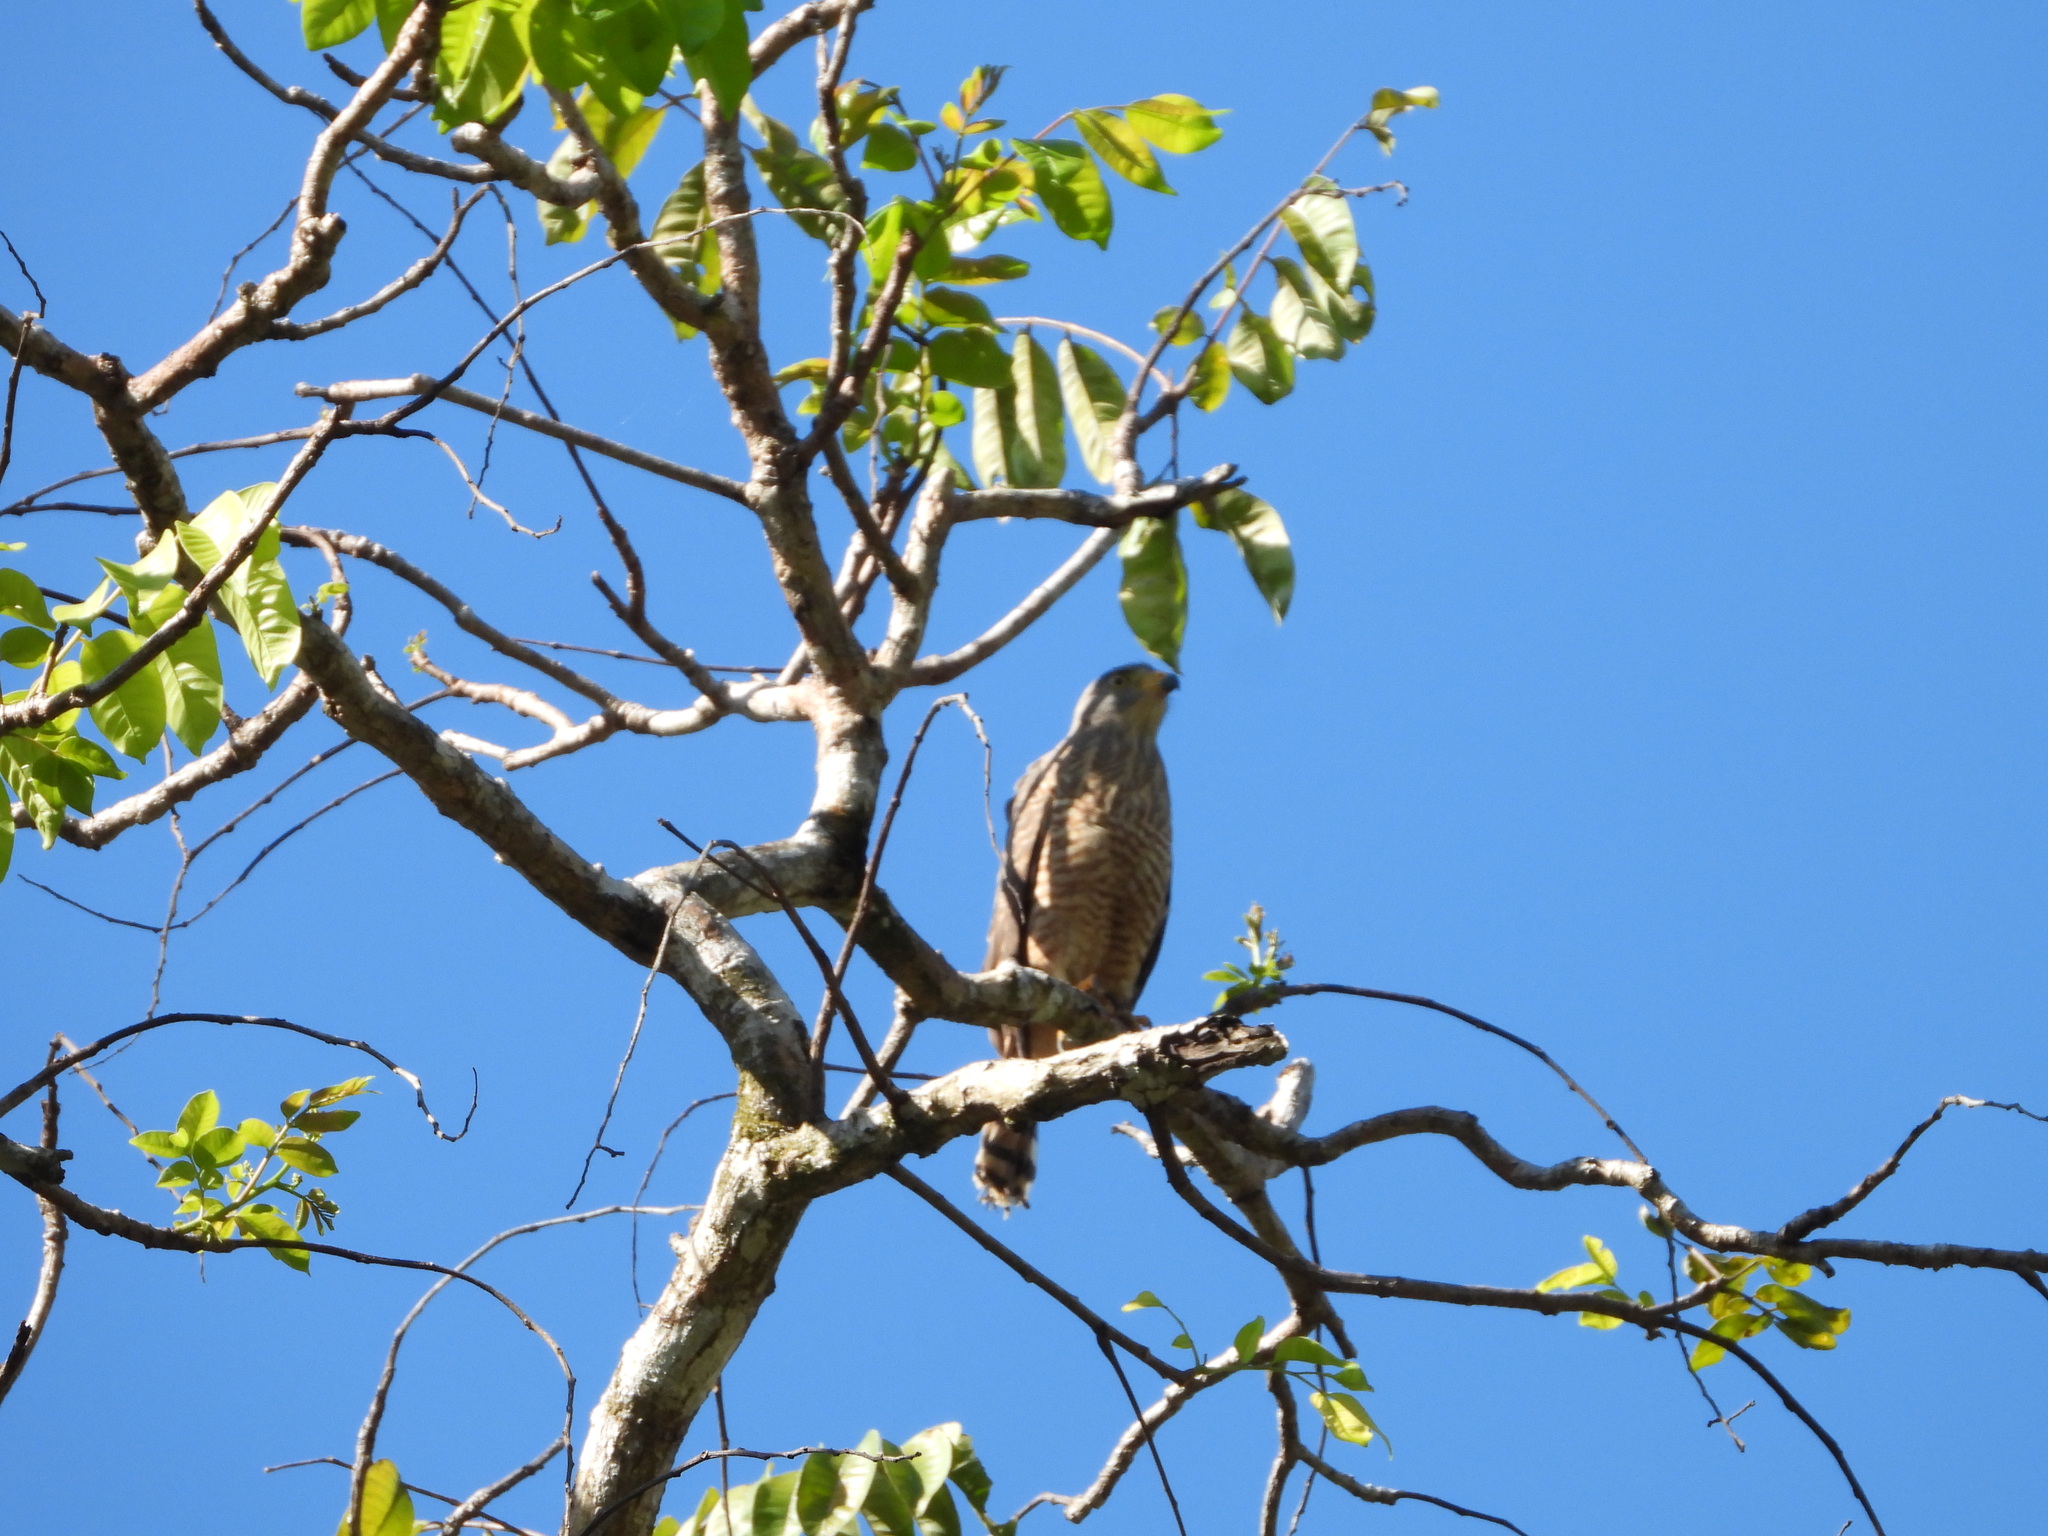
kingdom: Animalia
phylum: Chordata
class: Aves
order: Accipitriformes
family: Accipitridae
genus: Rupornis
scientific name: Rupornis magnirostris
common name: Roadside hawk
